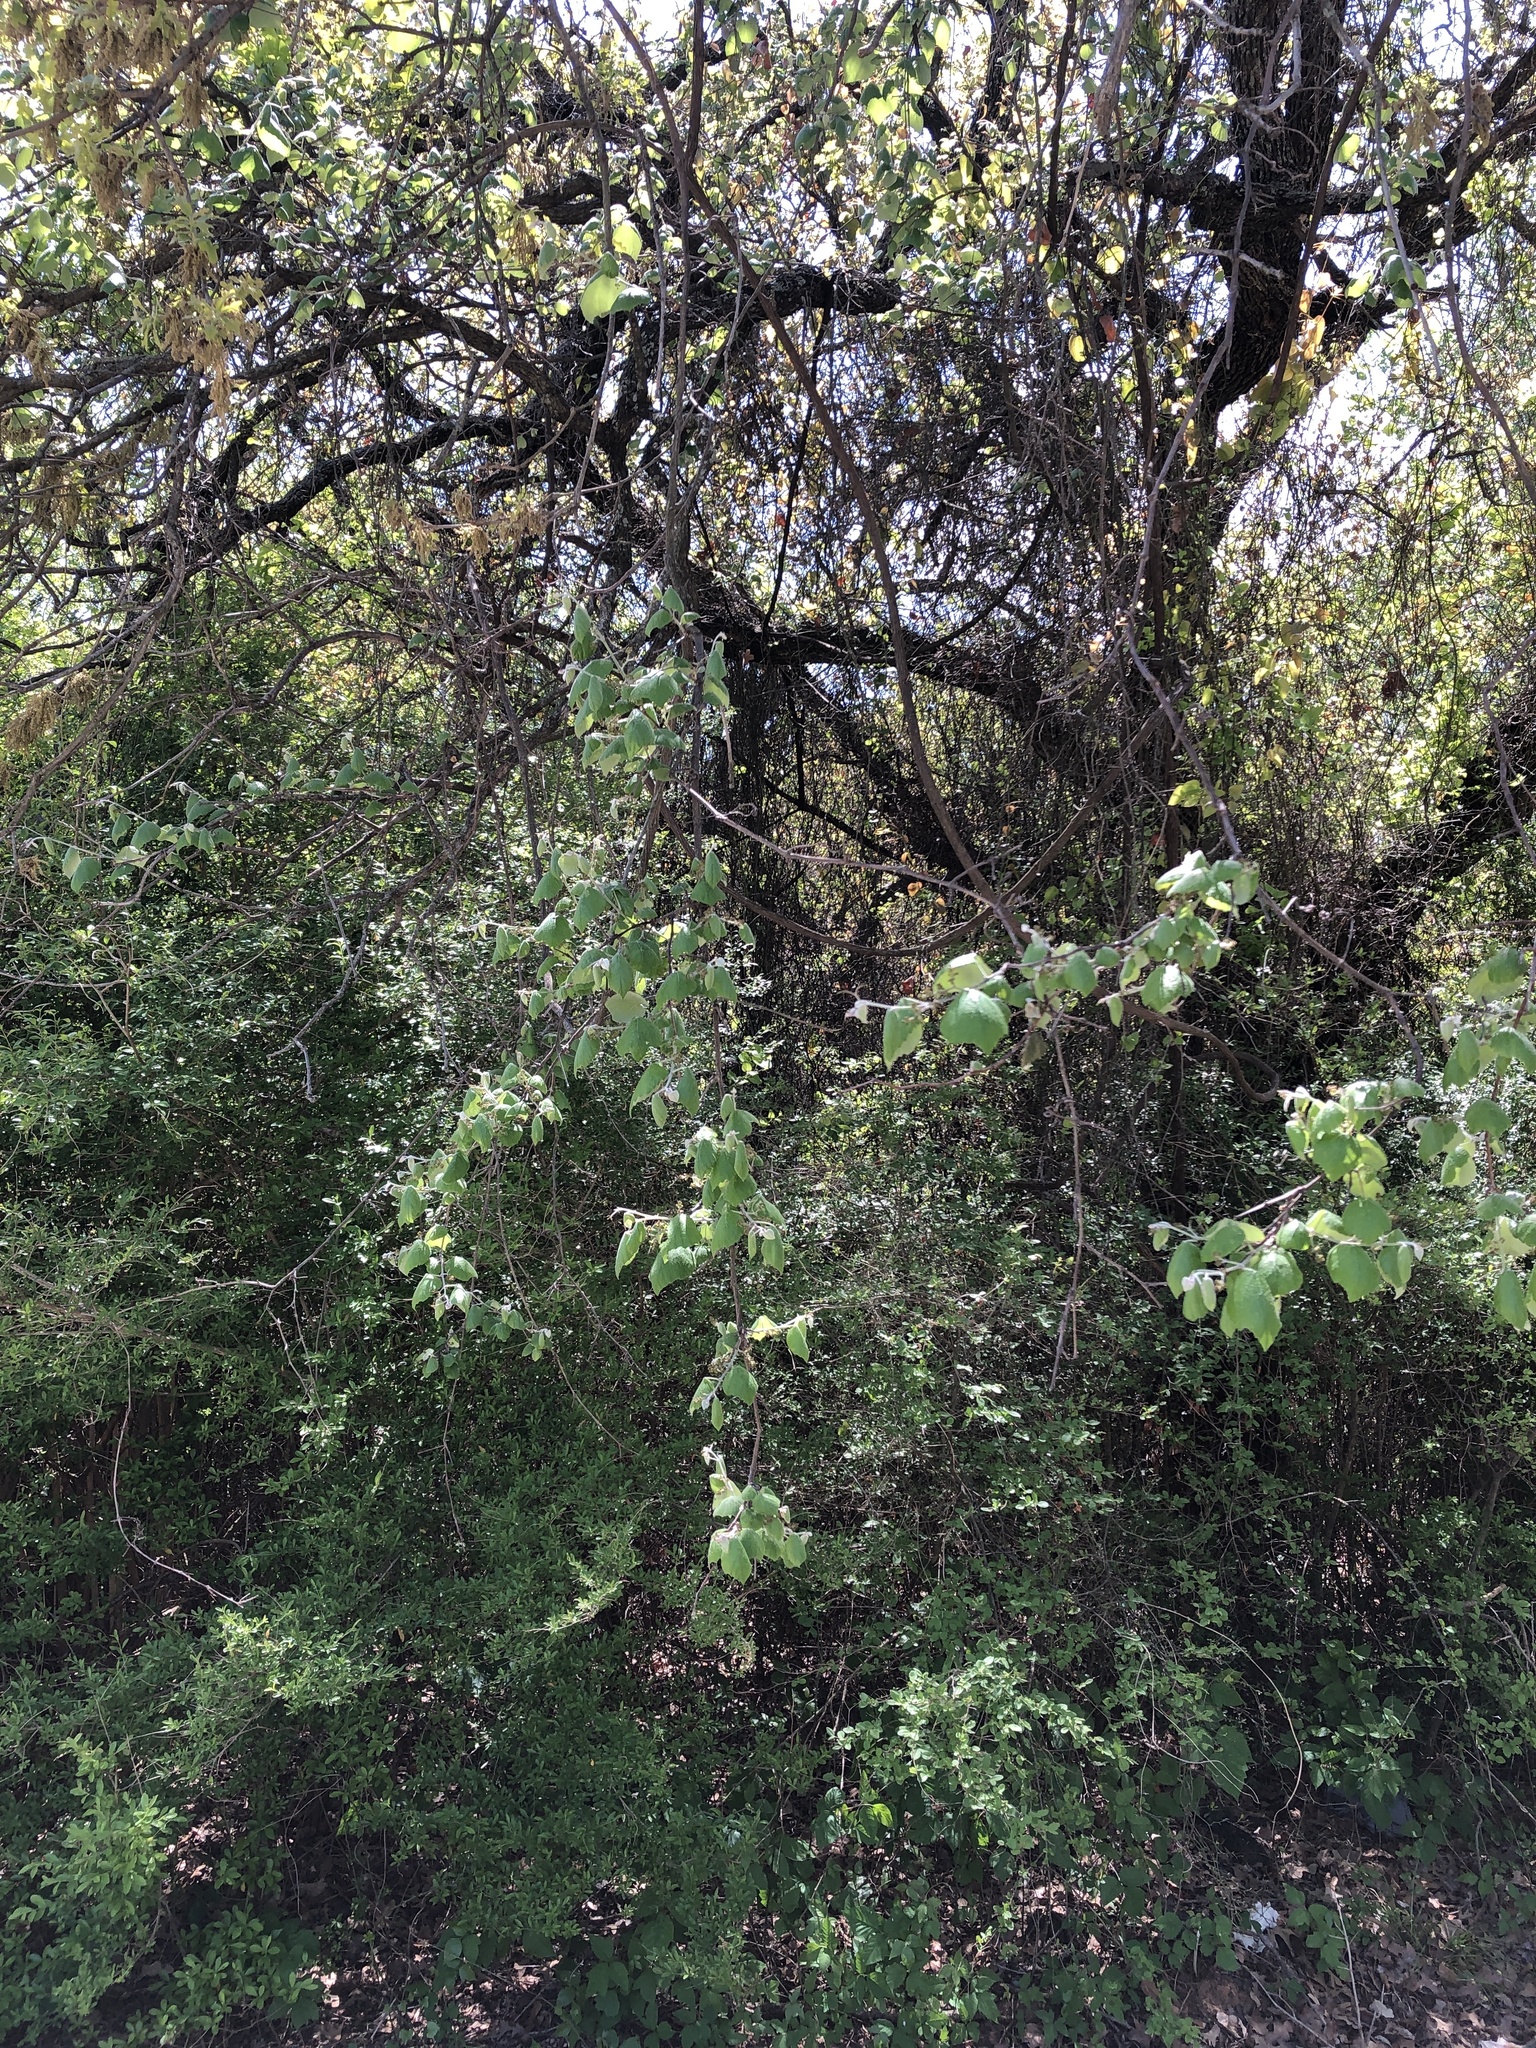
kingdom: Plantae
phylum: Tracheophyta
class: Magnoliopsida
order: Vitales
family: Vitaceae
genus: Vitis
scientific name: Vitis mustangensis
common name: Mustang grape
